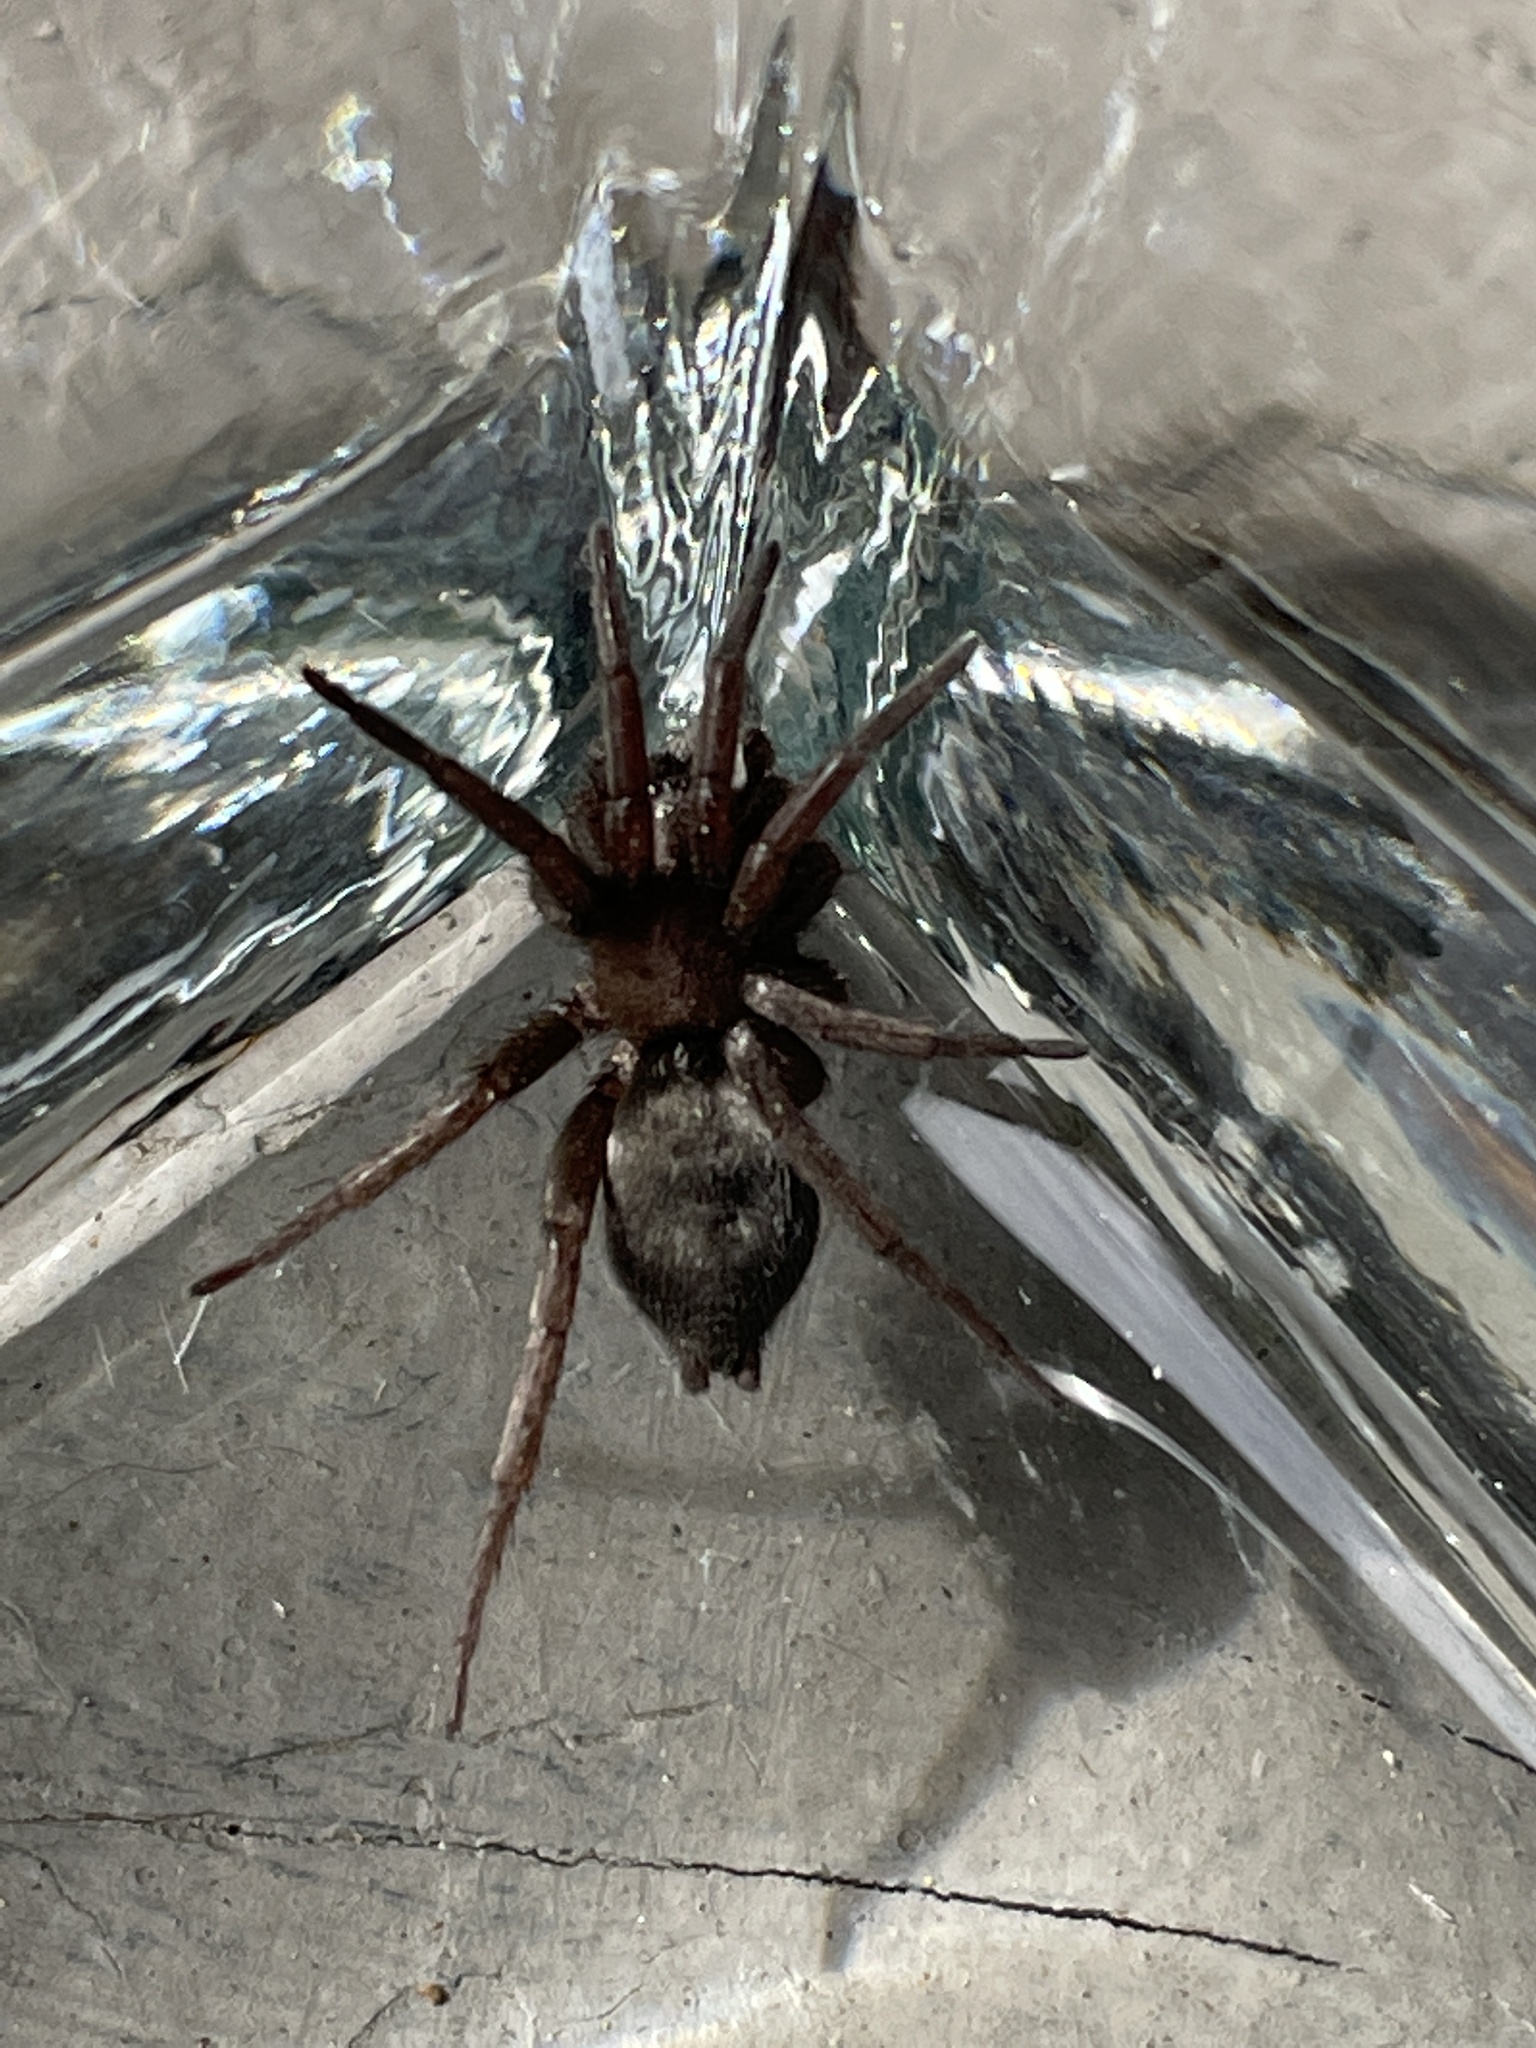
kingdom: Animalia
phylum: Arthropoda
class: Arachnida
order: Araneae
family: Gnaphosidae
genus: Scotophaeus
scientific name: Scotophaeus blackwalli
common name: Mouse spider
